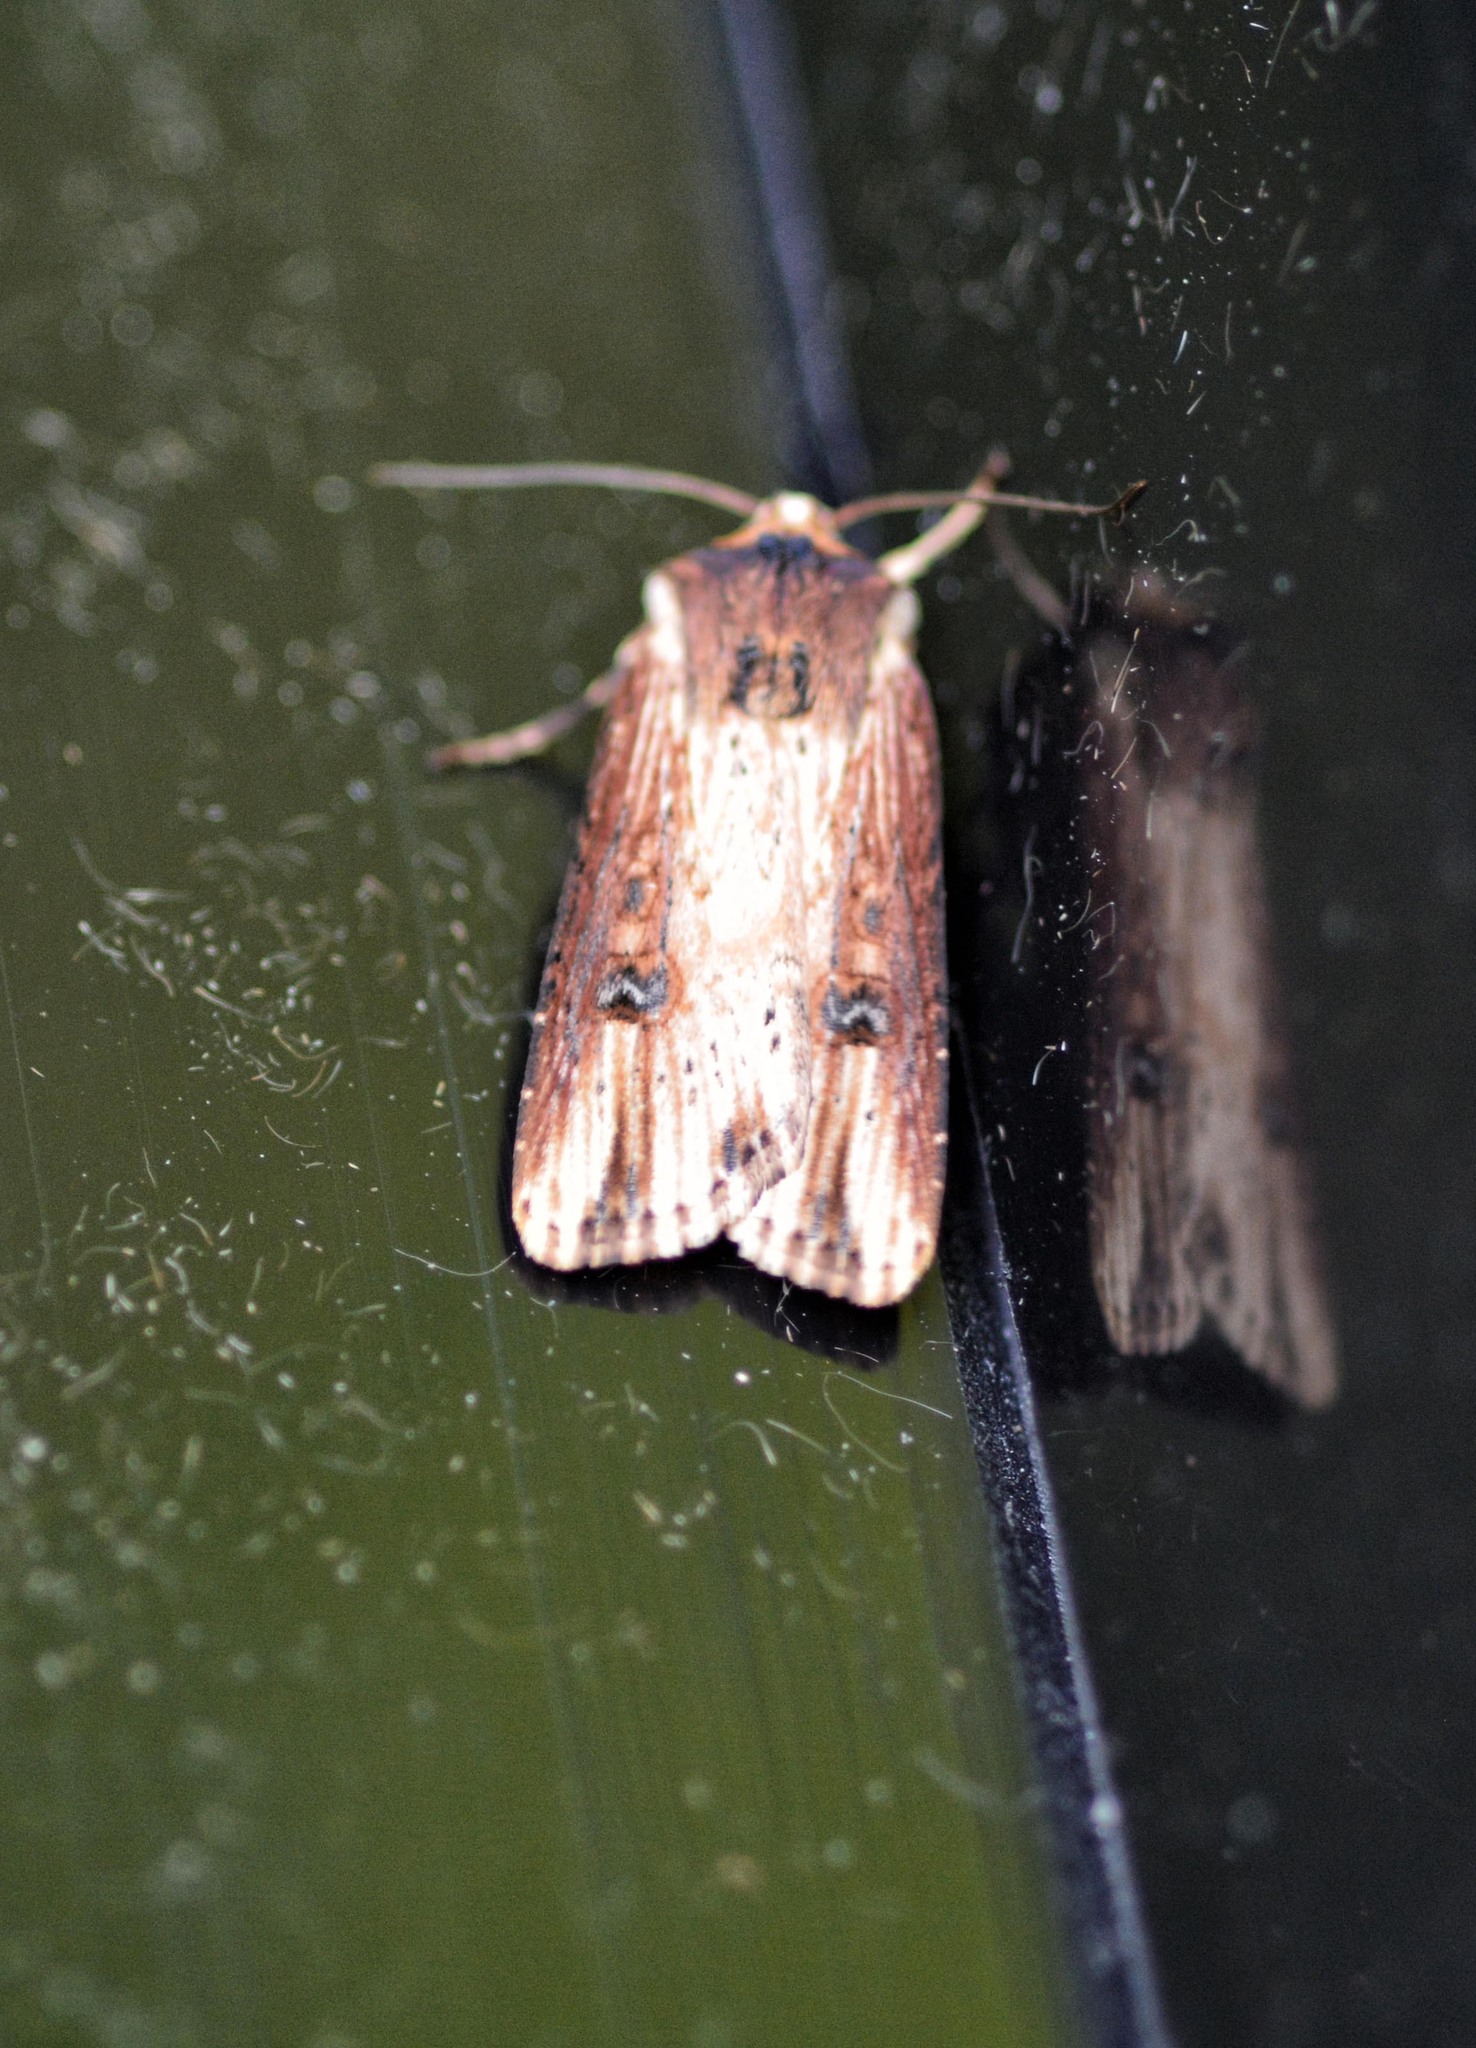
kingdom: Animalia
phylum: Arthropoda
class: Insecta
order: Lepidoptera
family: Noctuidae
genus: Axylia
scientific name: Axylia putris
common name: Flame
